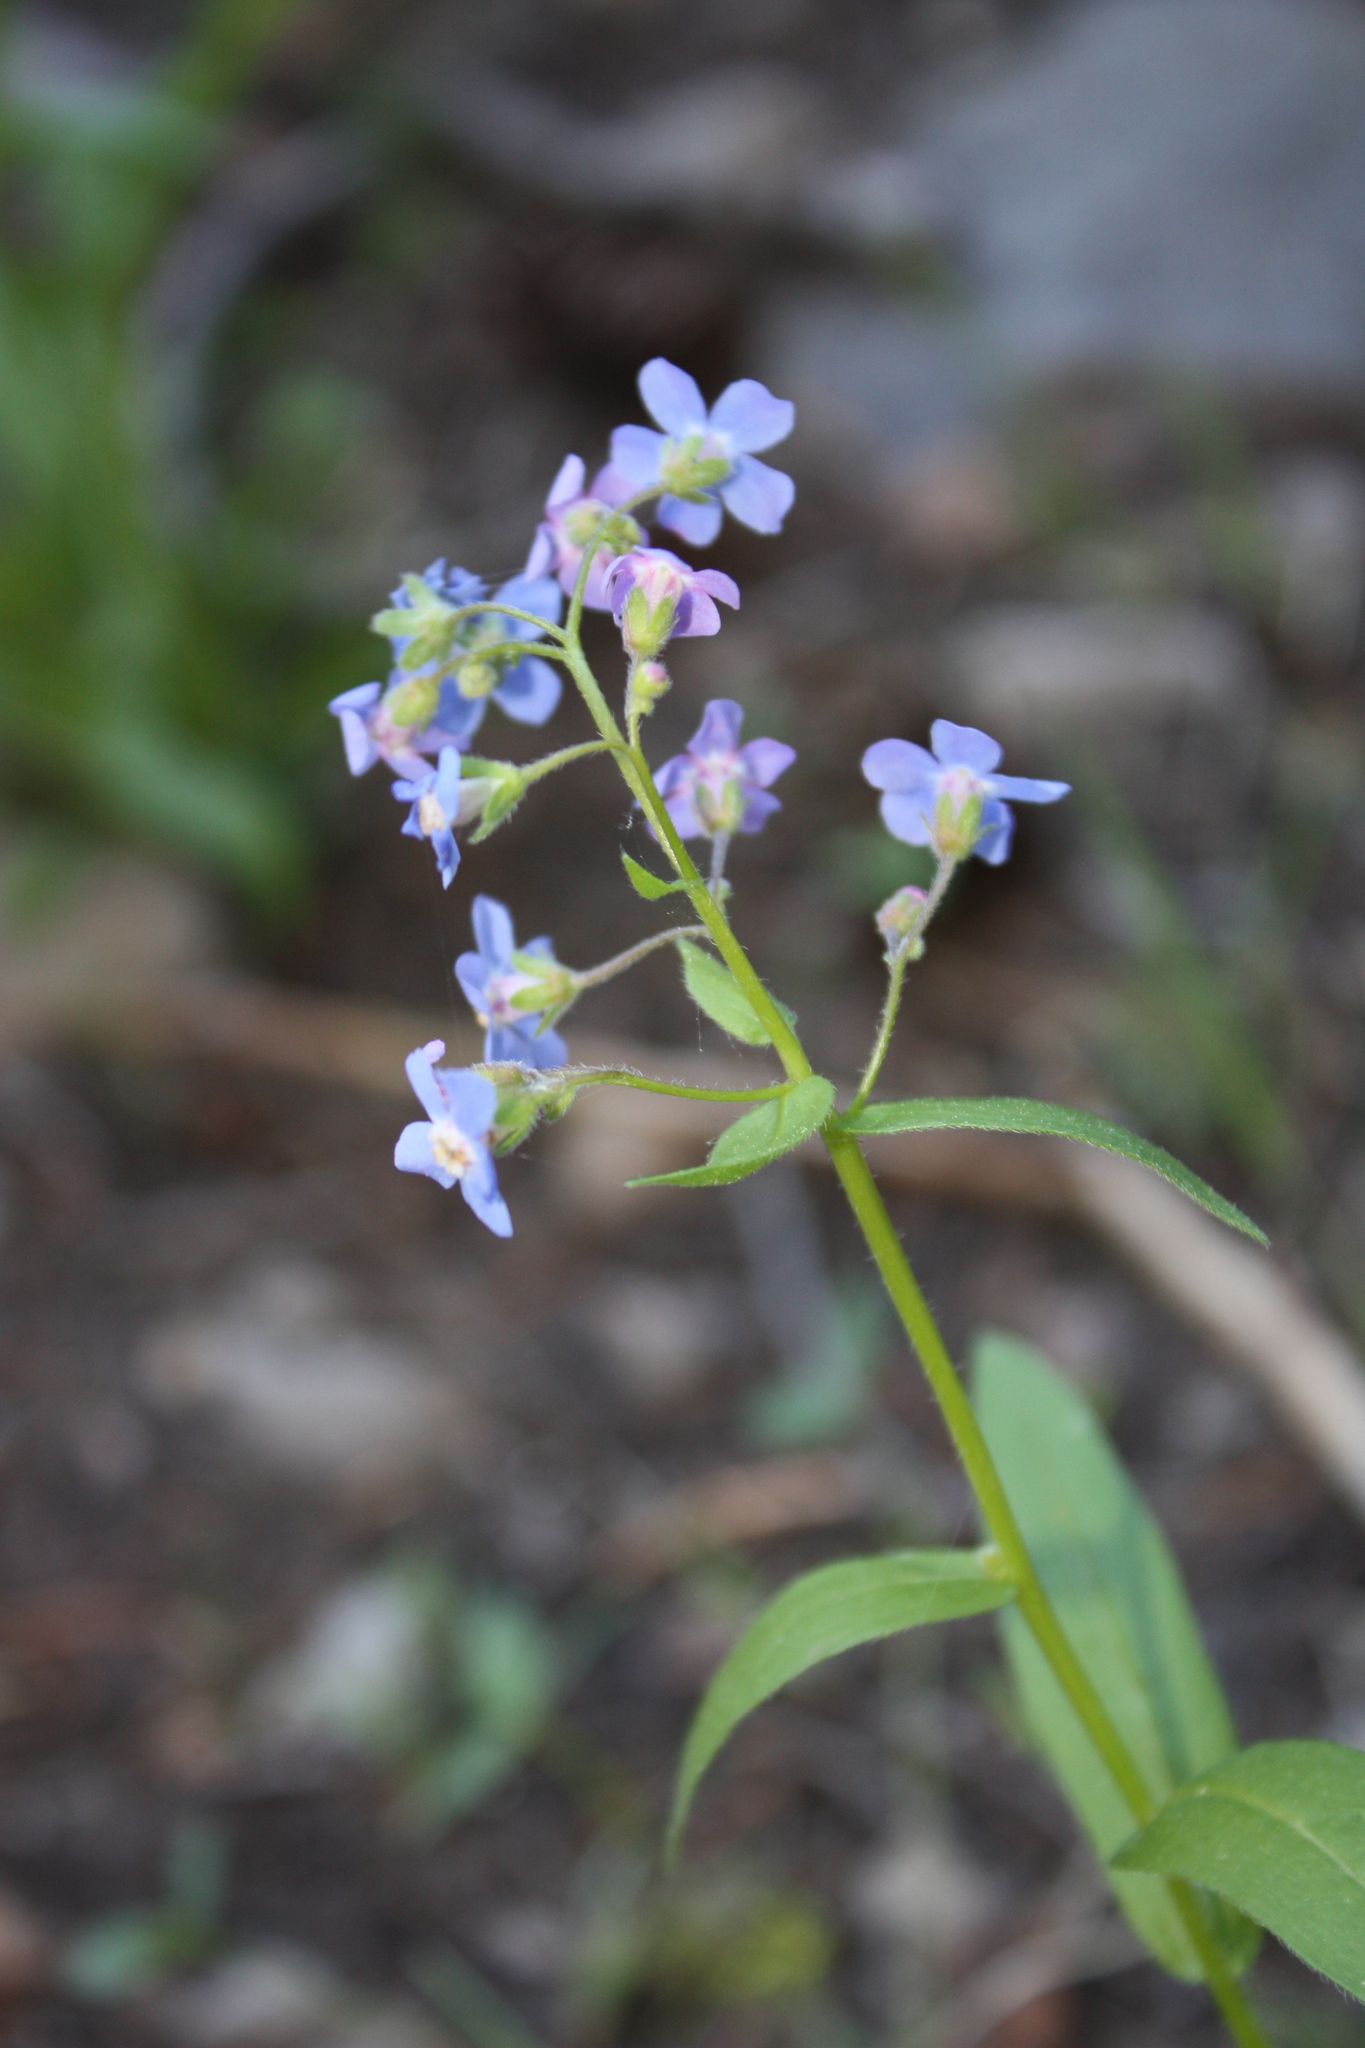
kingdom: Plantae
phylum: Tracheophyta
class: Magnoliopsida
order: Boraginales
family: Boraginaceae
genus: Hackelia
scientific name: Hackelia nervosa
